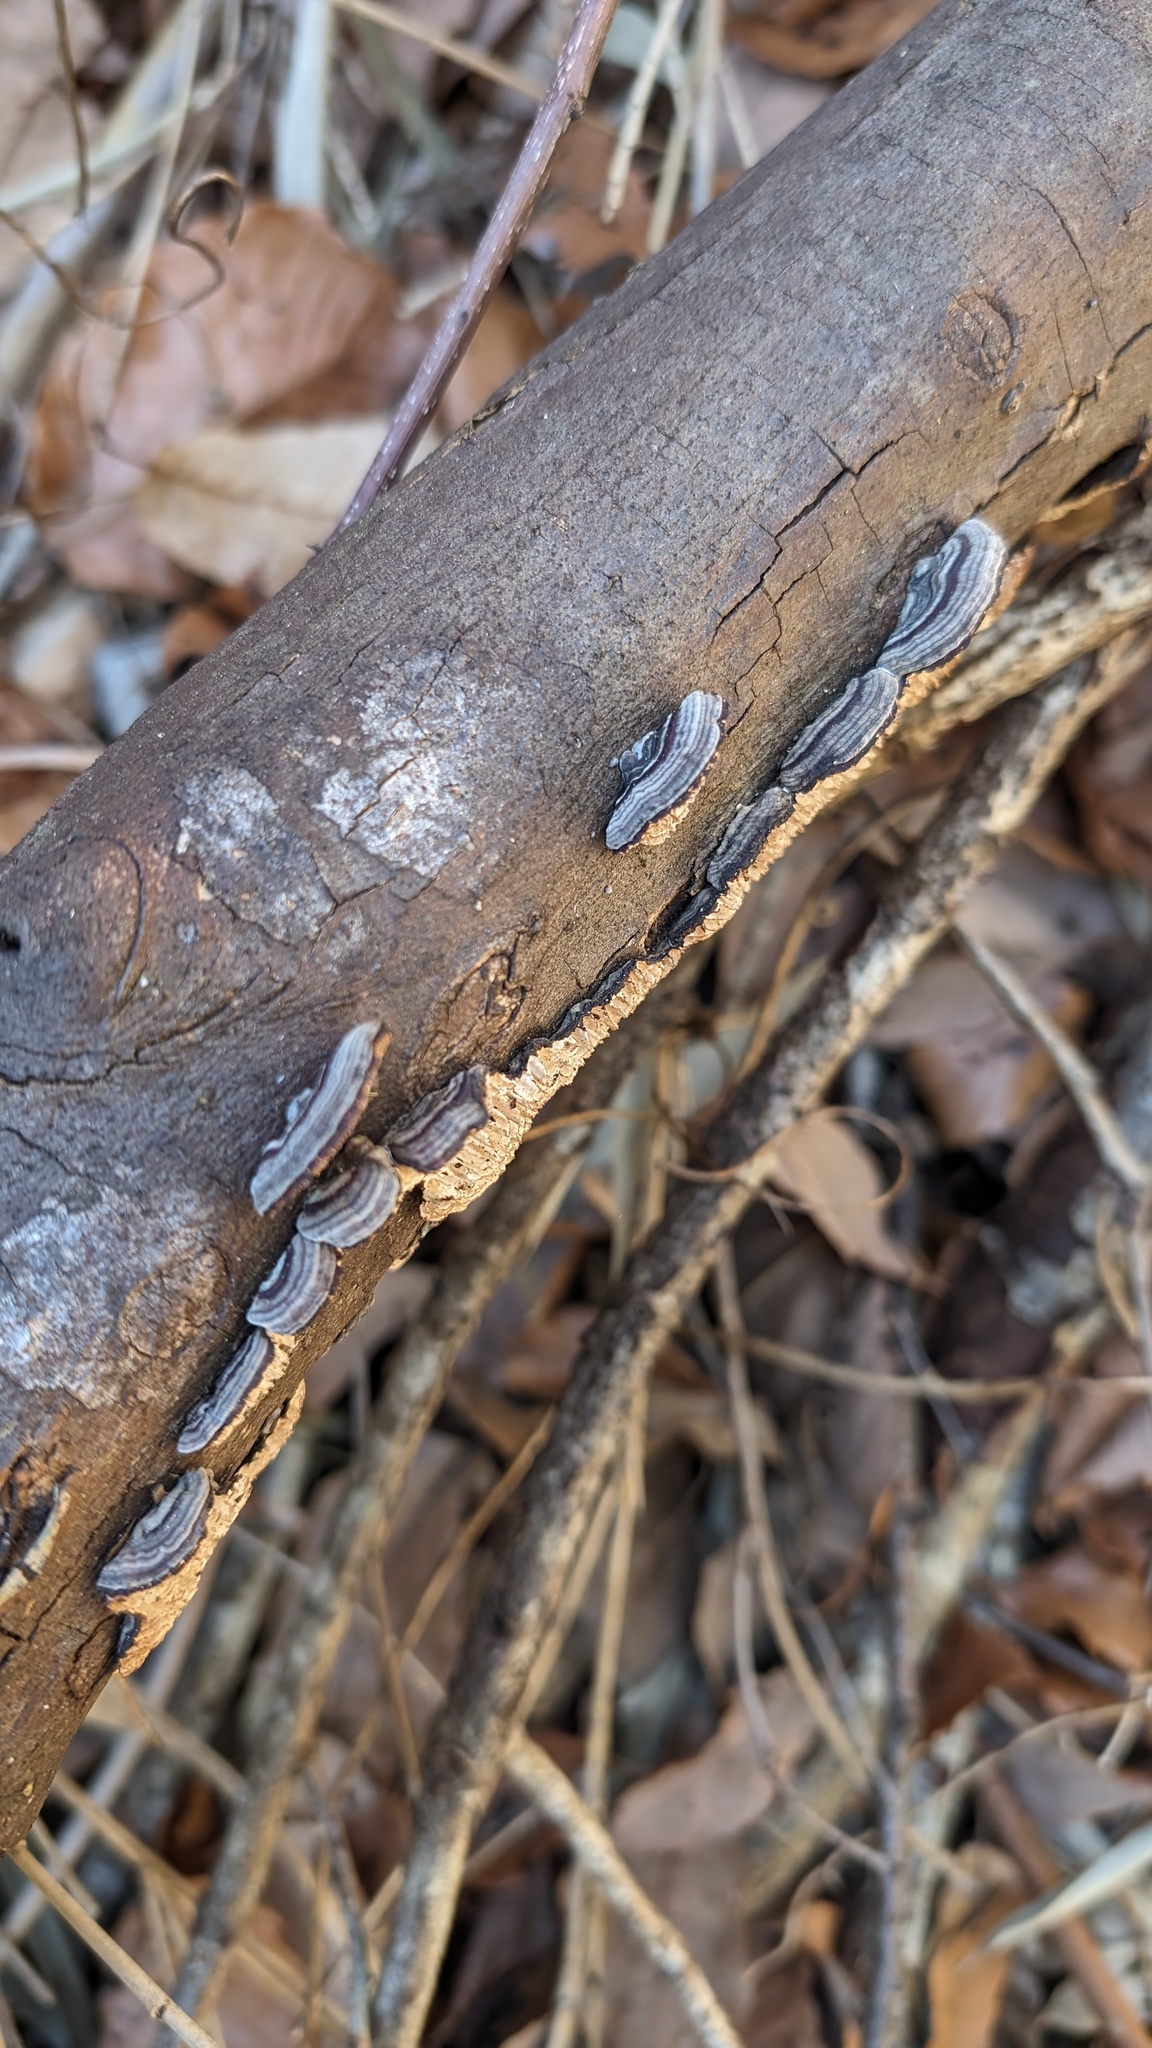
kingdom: Fungi
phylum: Basidiomycota
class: Agaricomycetes
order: Polyporales
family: Polyporaceae
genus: Lenzites
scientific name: Lenzites styracinus
